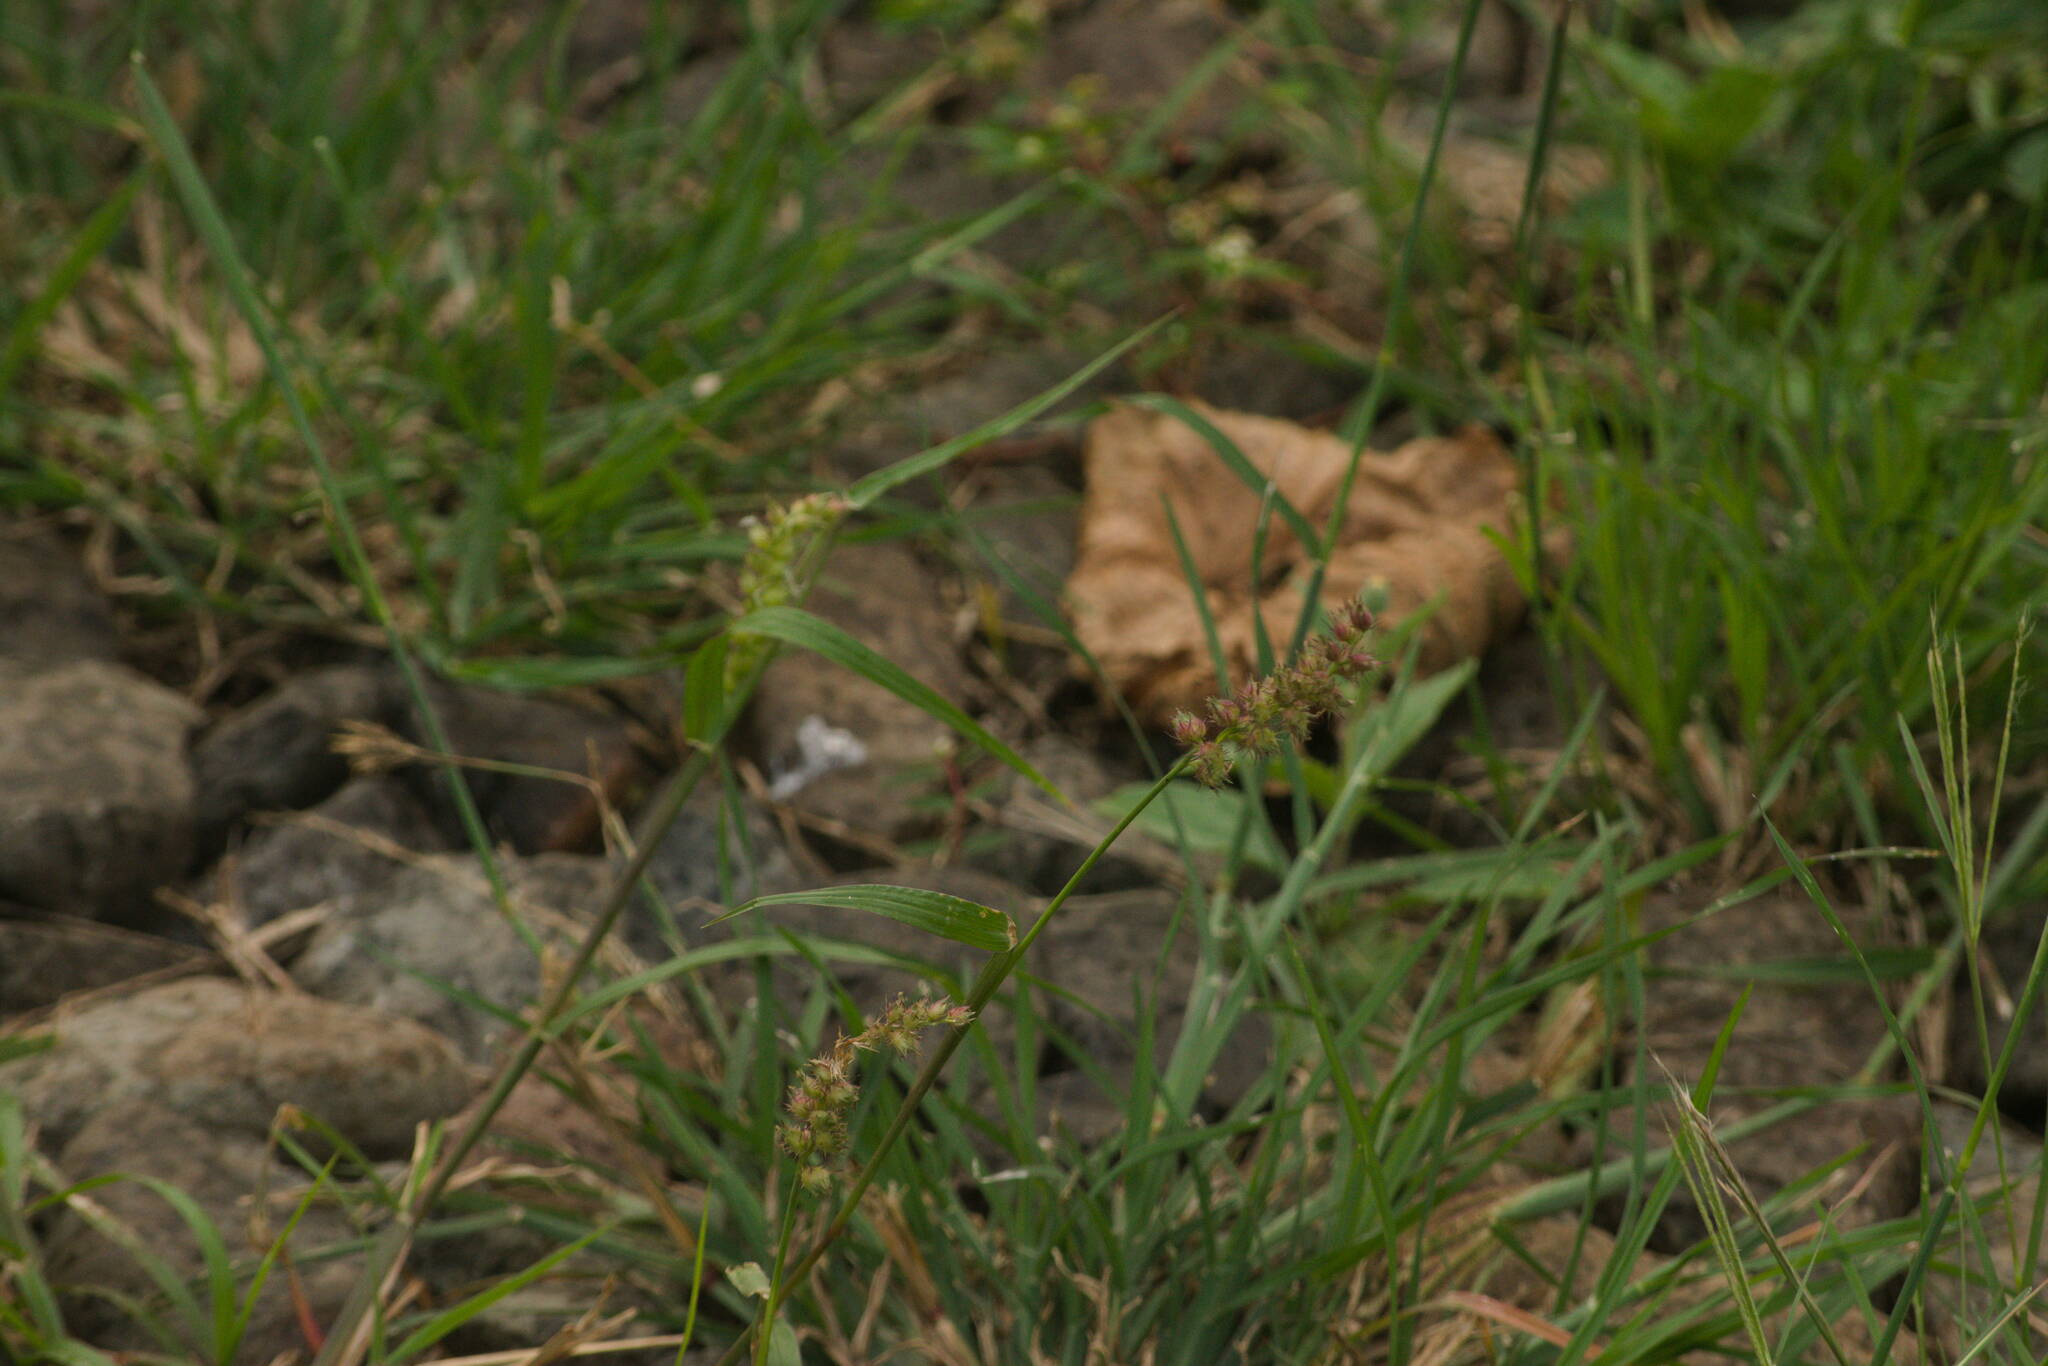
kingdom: Plantae
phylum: Tracheophyta
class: Liliopsida
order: Poales
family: Poaceae
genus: Cenchrus
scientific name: Cenchrus echinatus
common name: Southern sandbur
